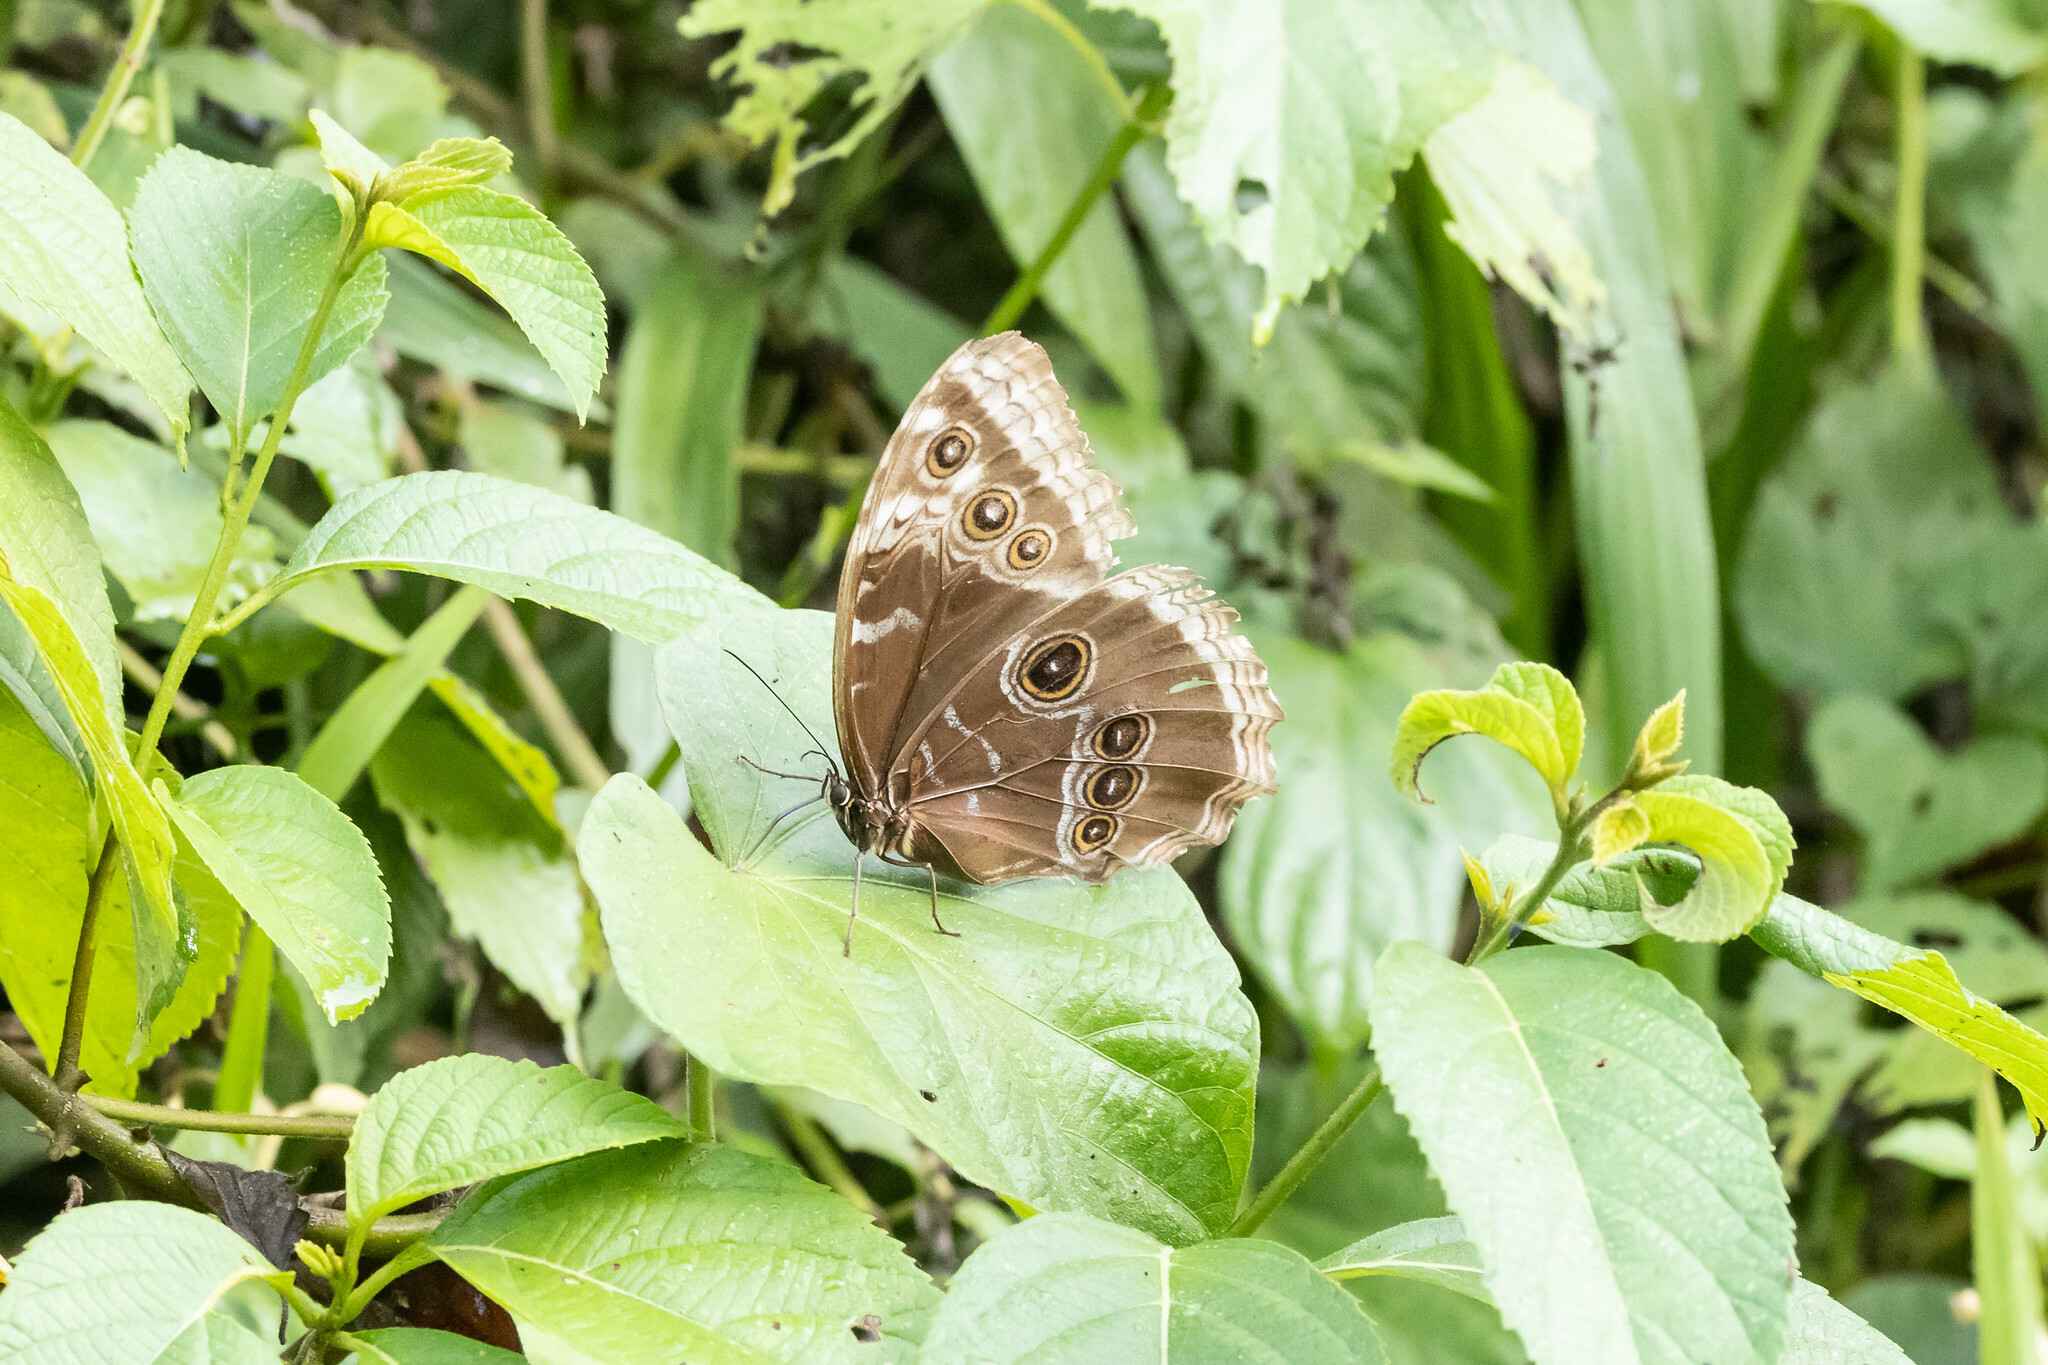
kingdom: Animalia
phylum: Arthropoda
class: Insecta
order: Lepidoptera
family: Nymphalidae
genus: Morpho
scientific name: Morpho helenor
